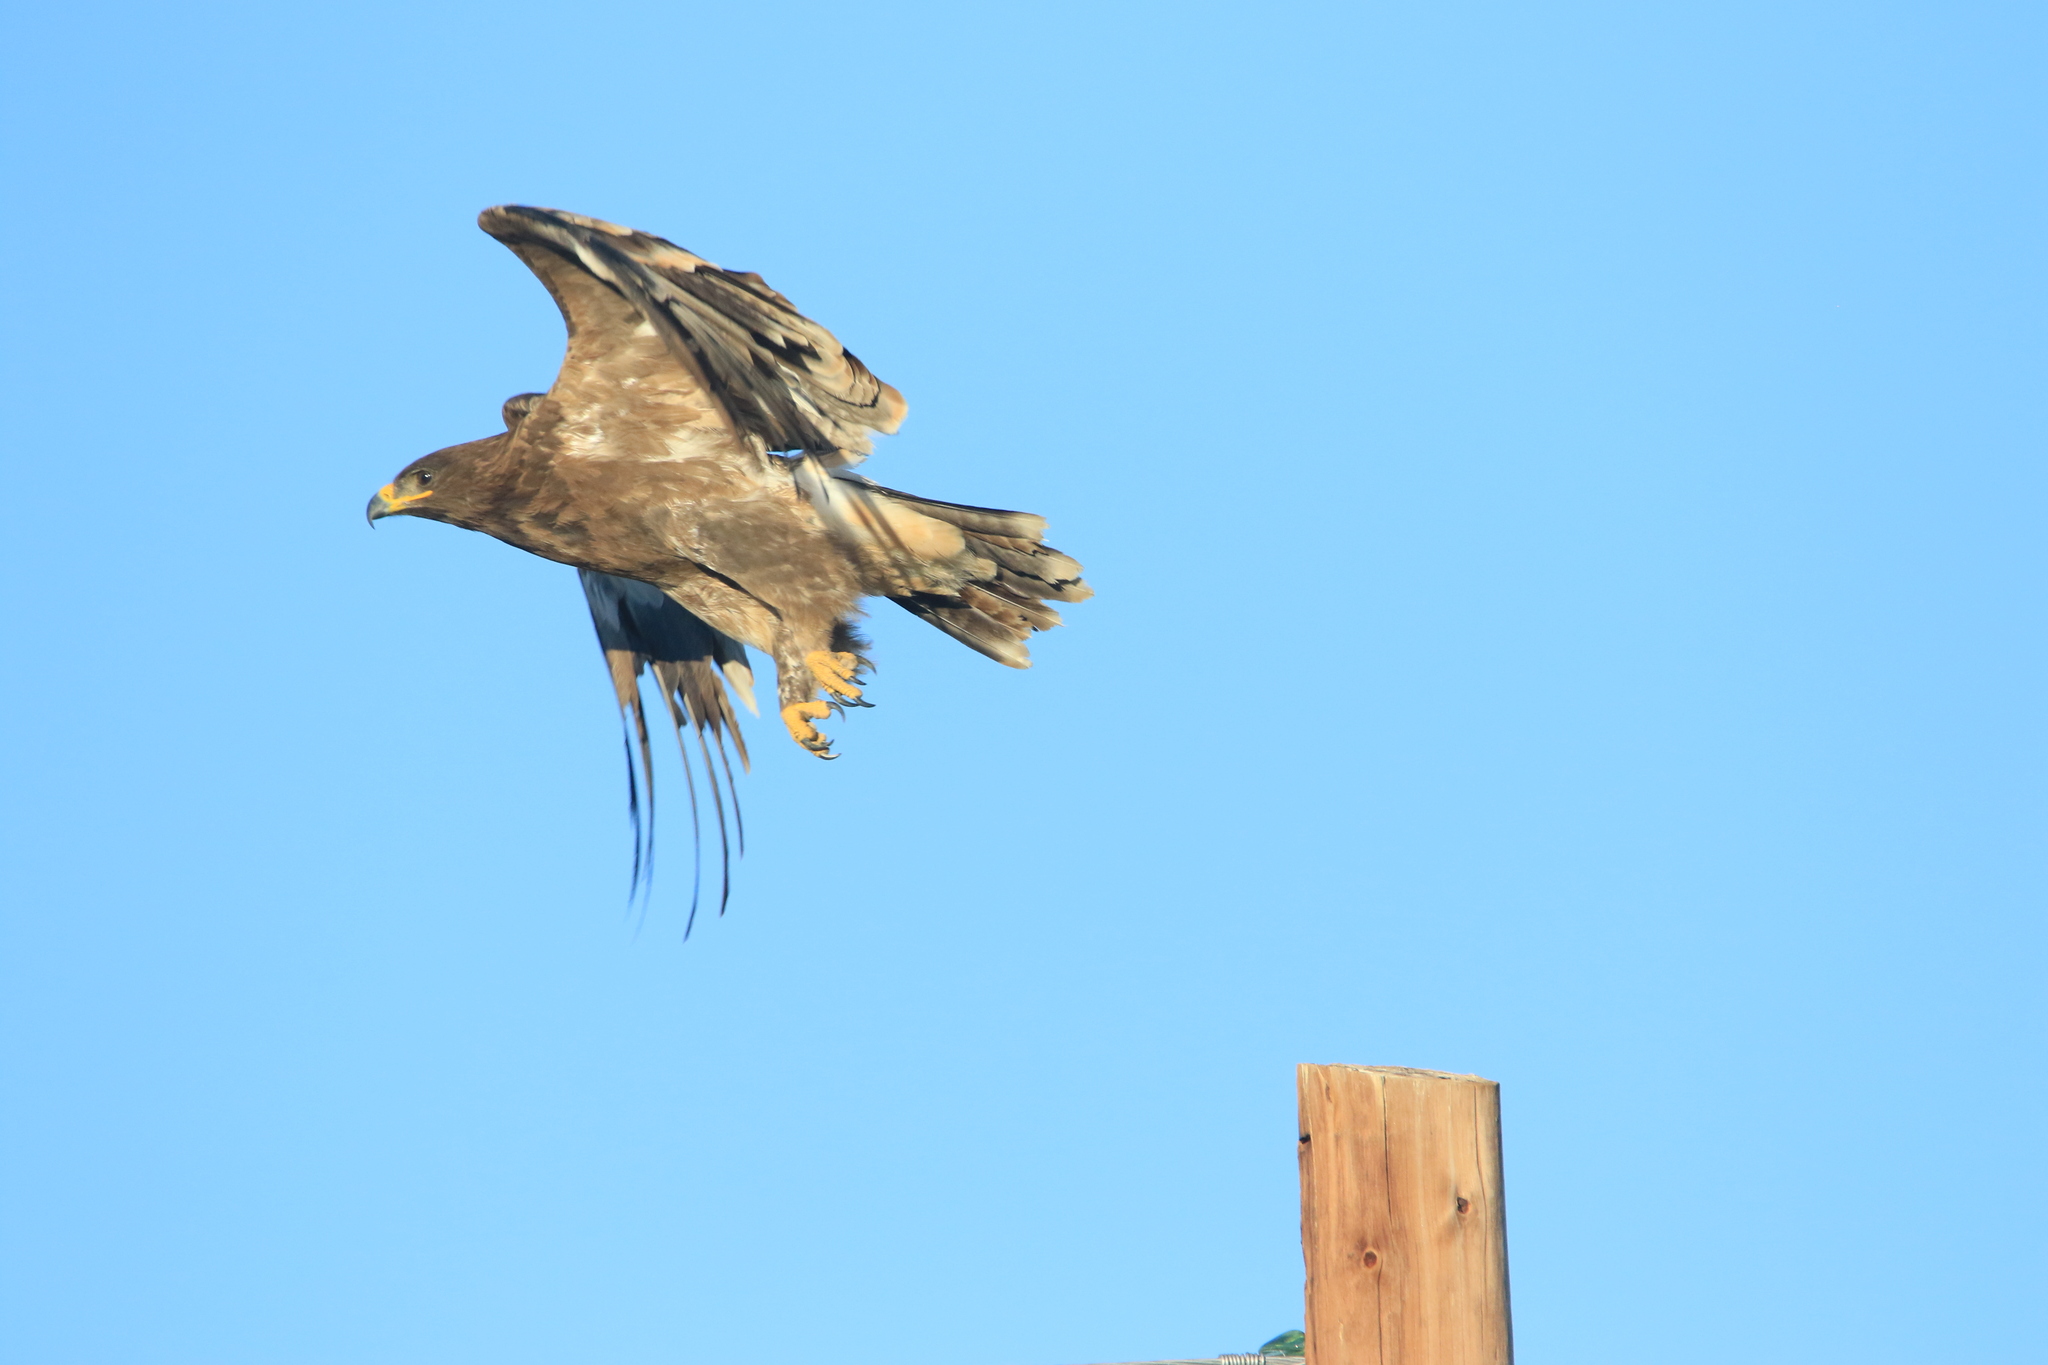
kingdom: Animalia
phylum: Chordata
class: Aves
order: Accipitriformes
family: Accipitridae
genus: Aquila
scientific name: Aquila nipalensis
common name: Steppe eagle
